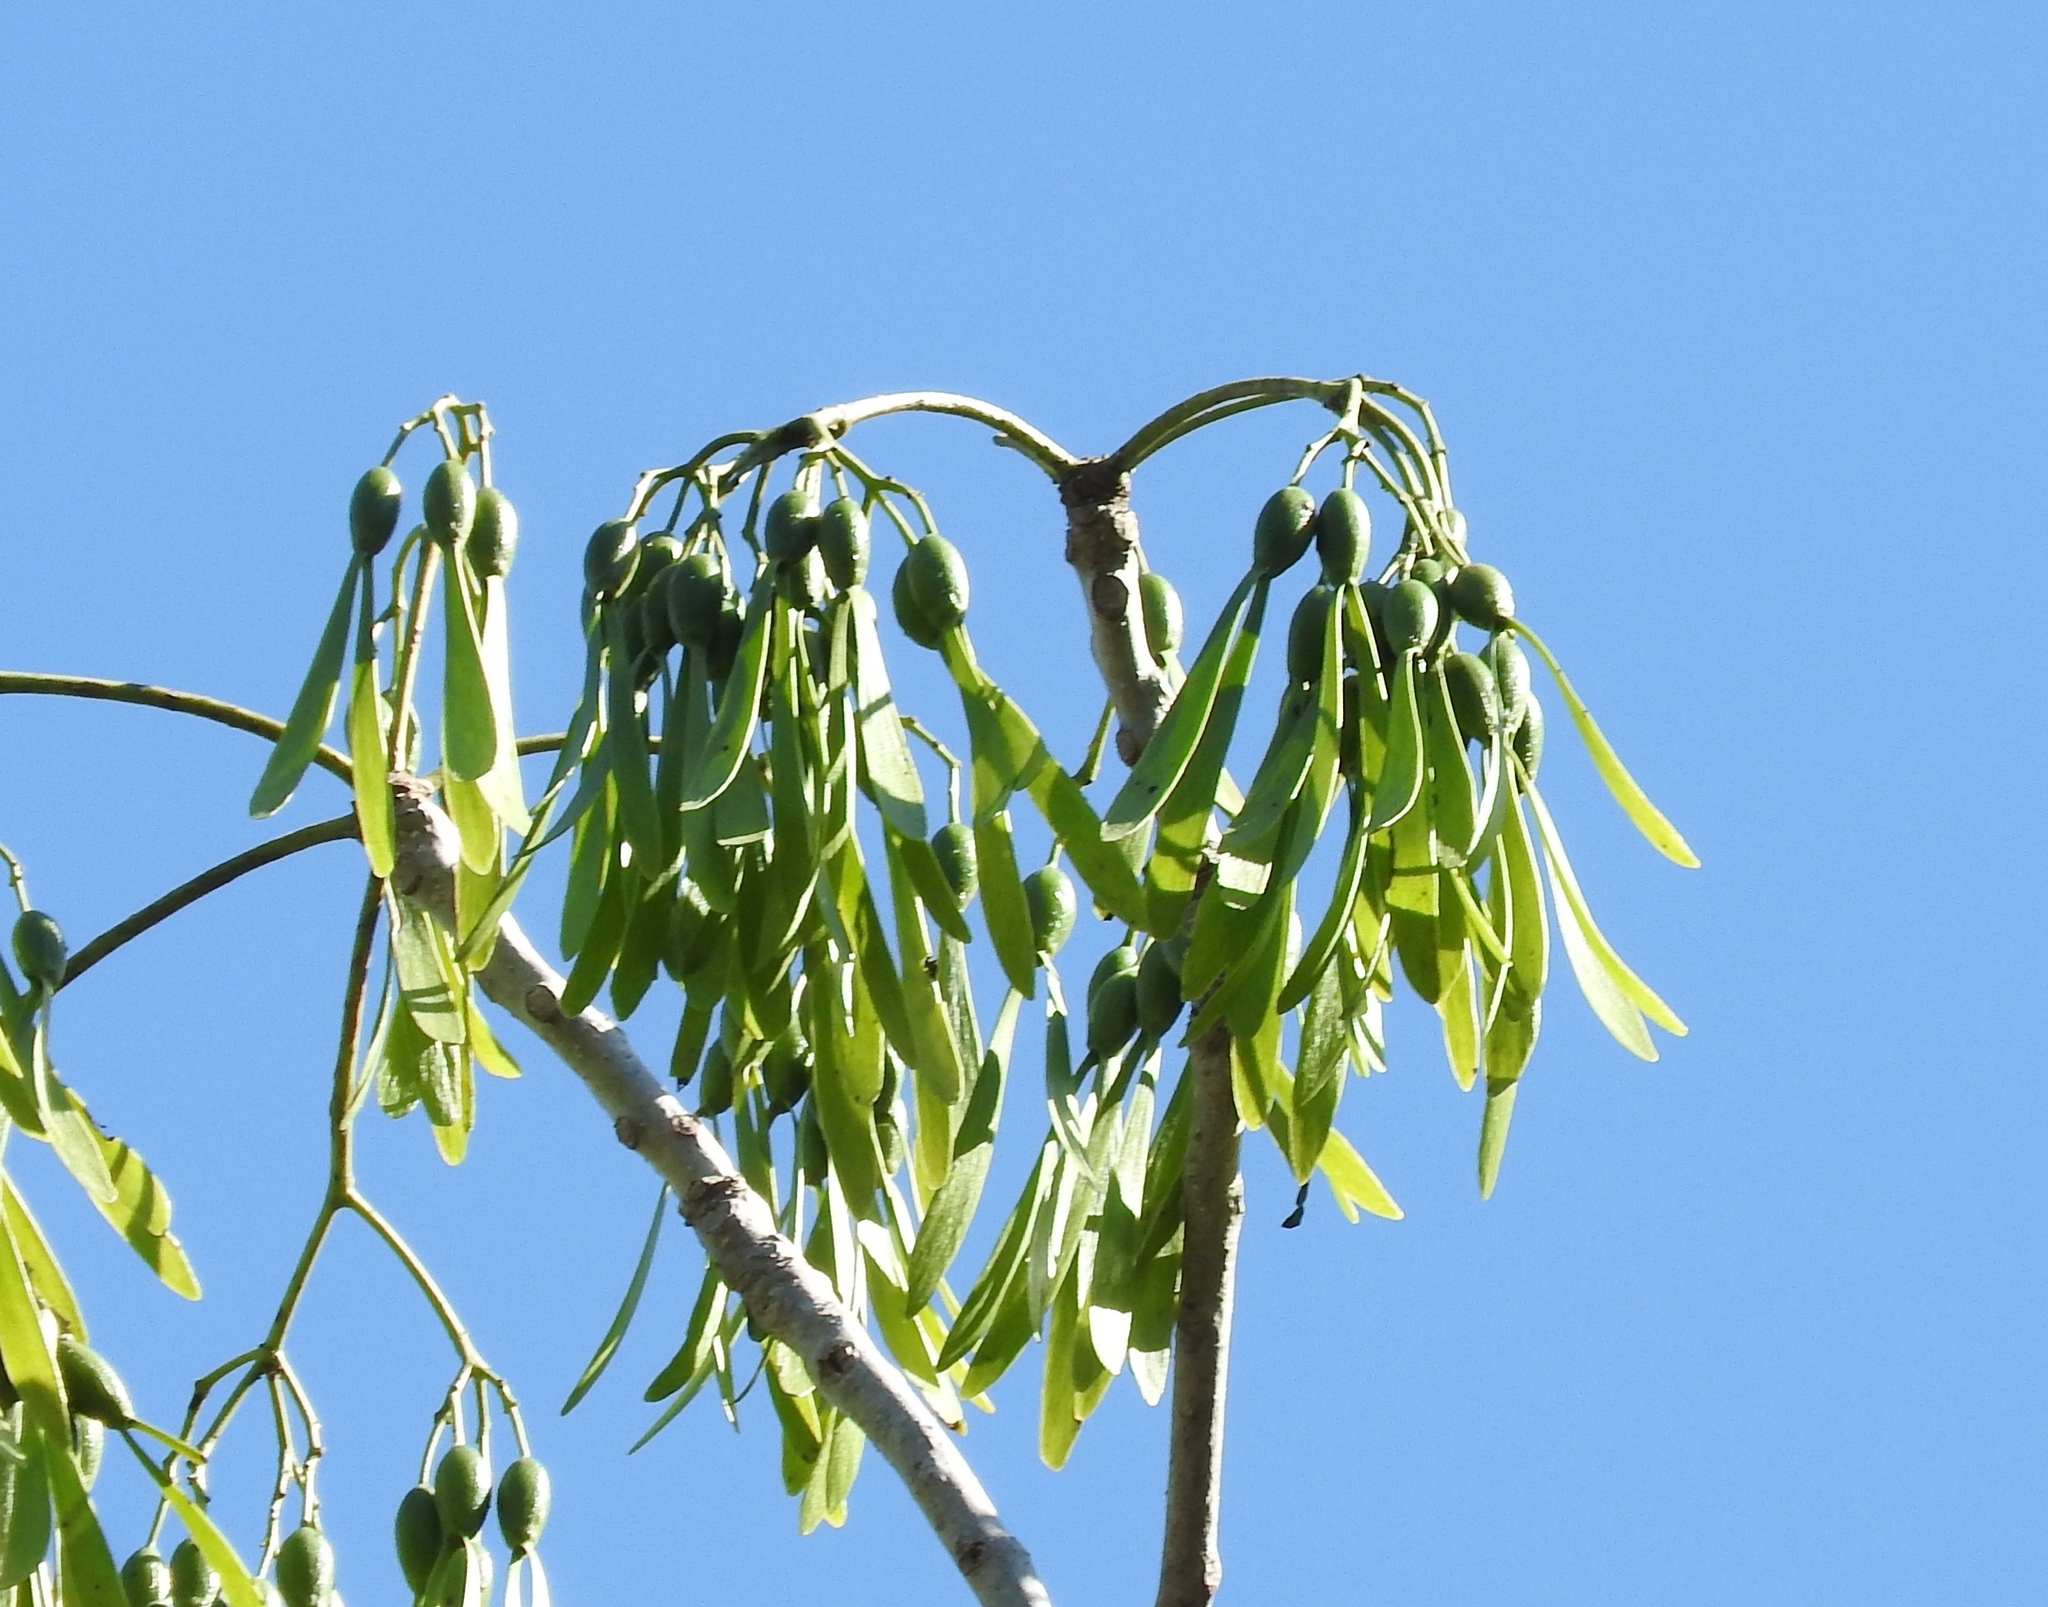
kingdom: Plantae
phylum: Tracheophyta
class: Magnoliopsida
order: Laurales
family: Hernandiaceae
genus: Gyrocarpus
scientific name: Gyrocarpus jatrophifolius
